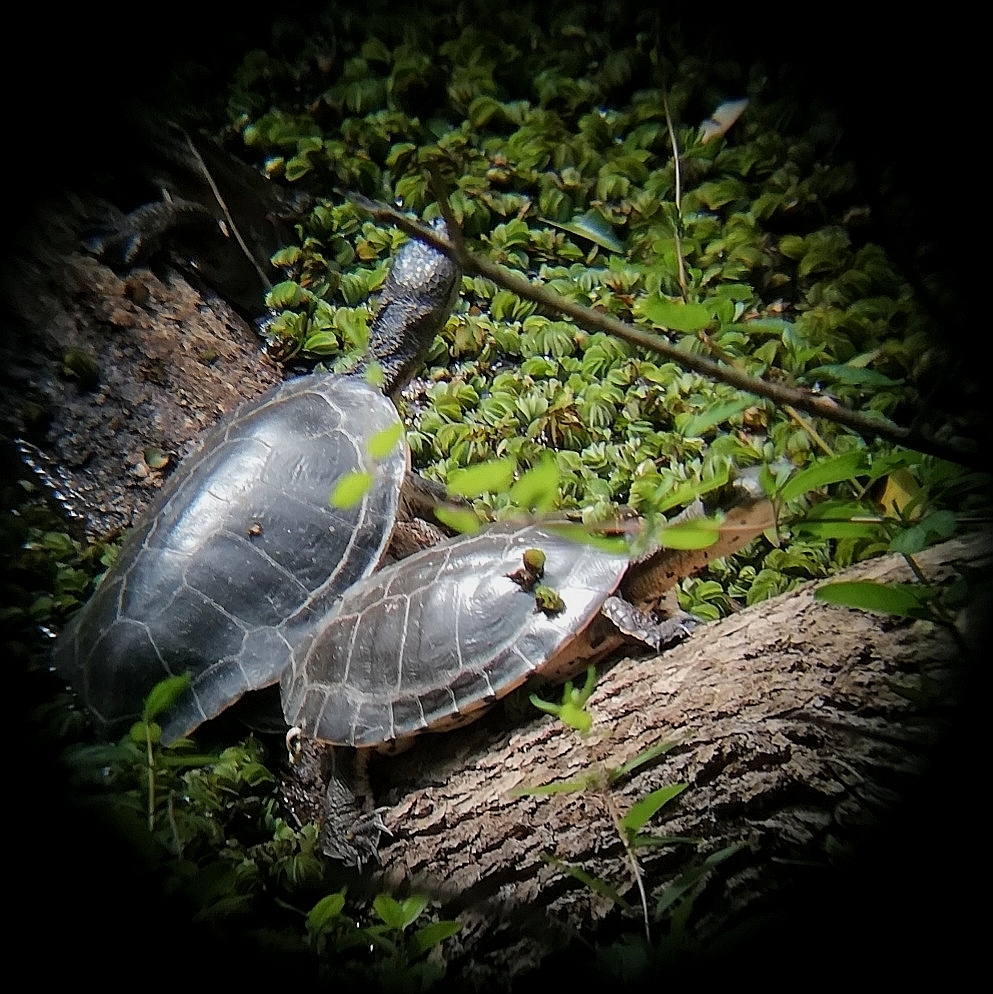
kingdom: Animalia
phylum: Chordata
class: Testudines
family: Chelidae
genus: Phrynops
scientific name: Phrynops hilarii
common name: Side-necked turtle of saint hillaire
